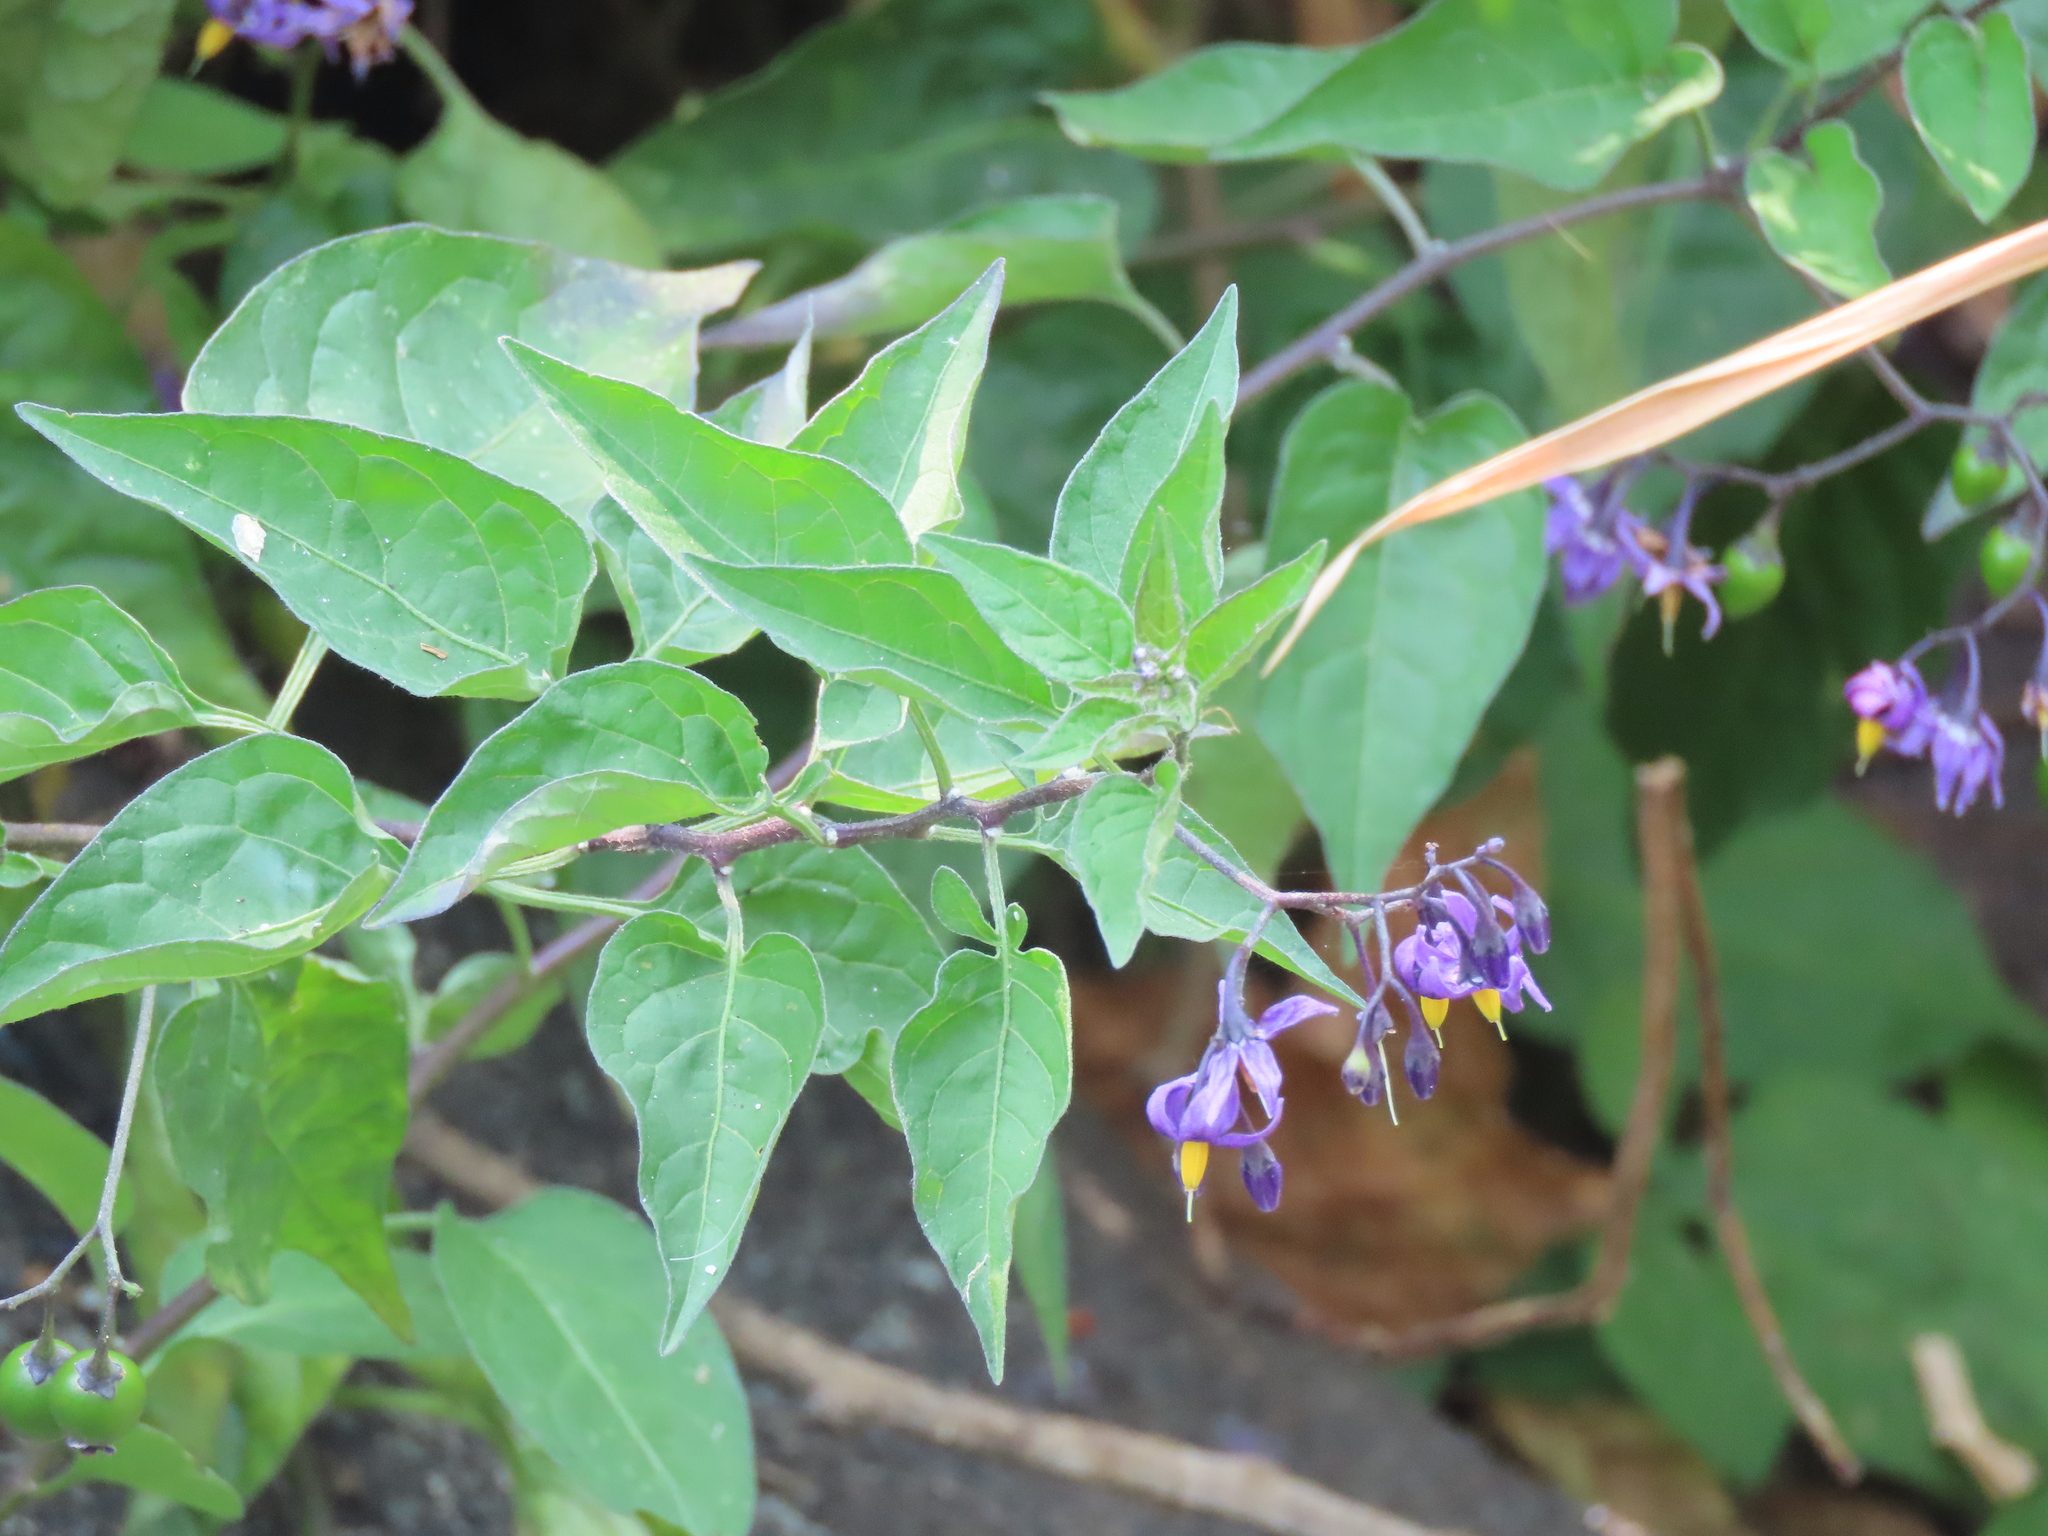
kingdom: Plantae
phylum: Tracheophyta
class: Magnoliopsida
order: Solanales
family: Solanaceae
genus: Solanum
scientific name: Solanum dulcamara
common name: Climbing nightshade
